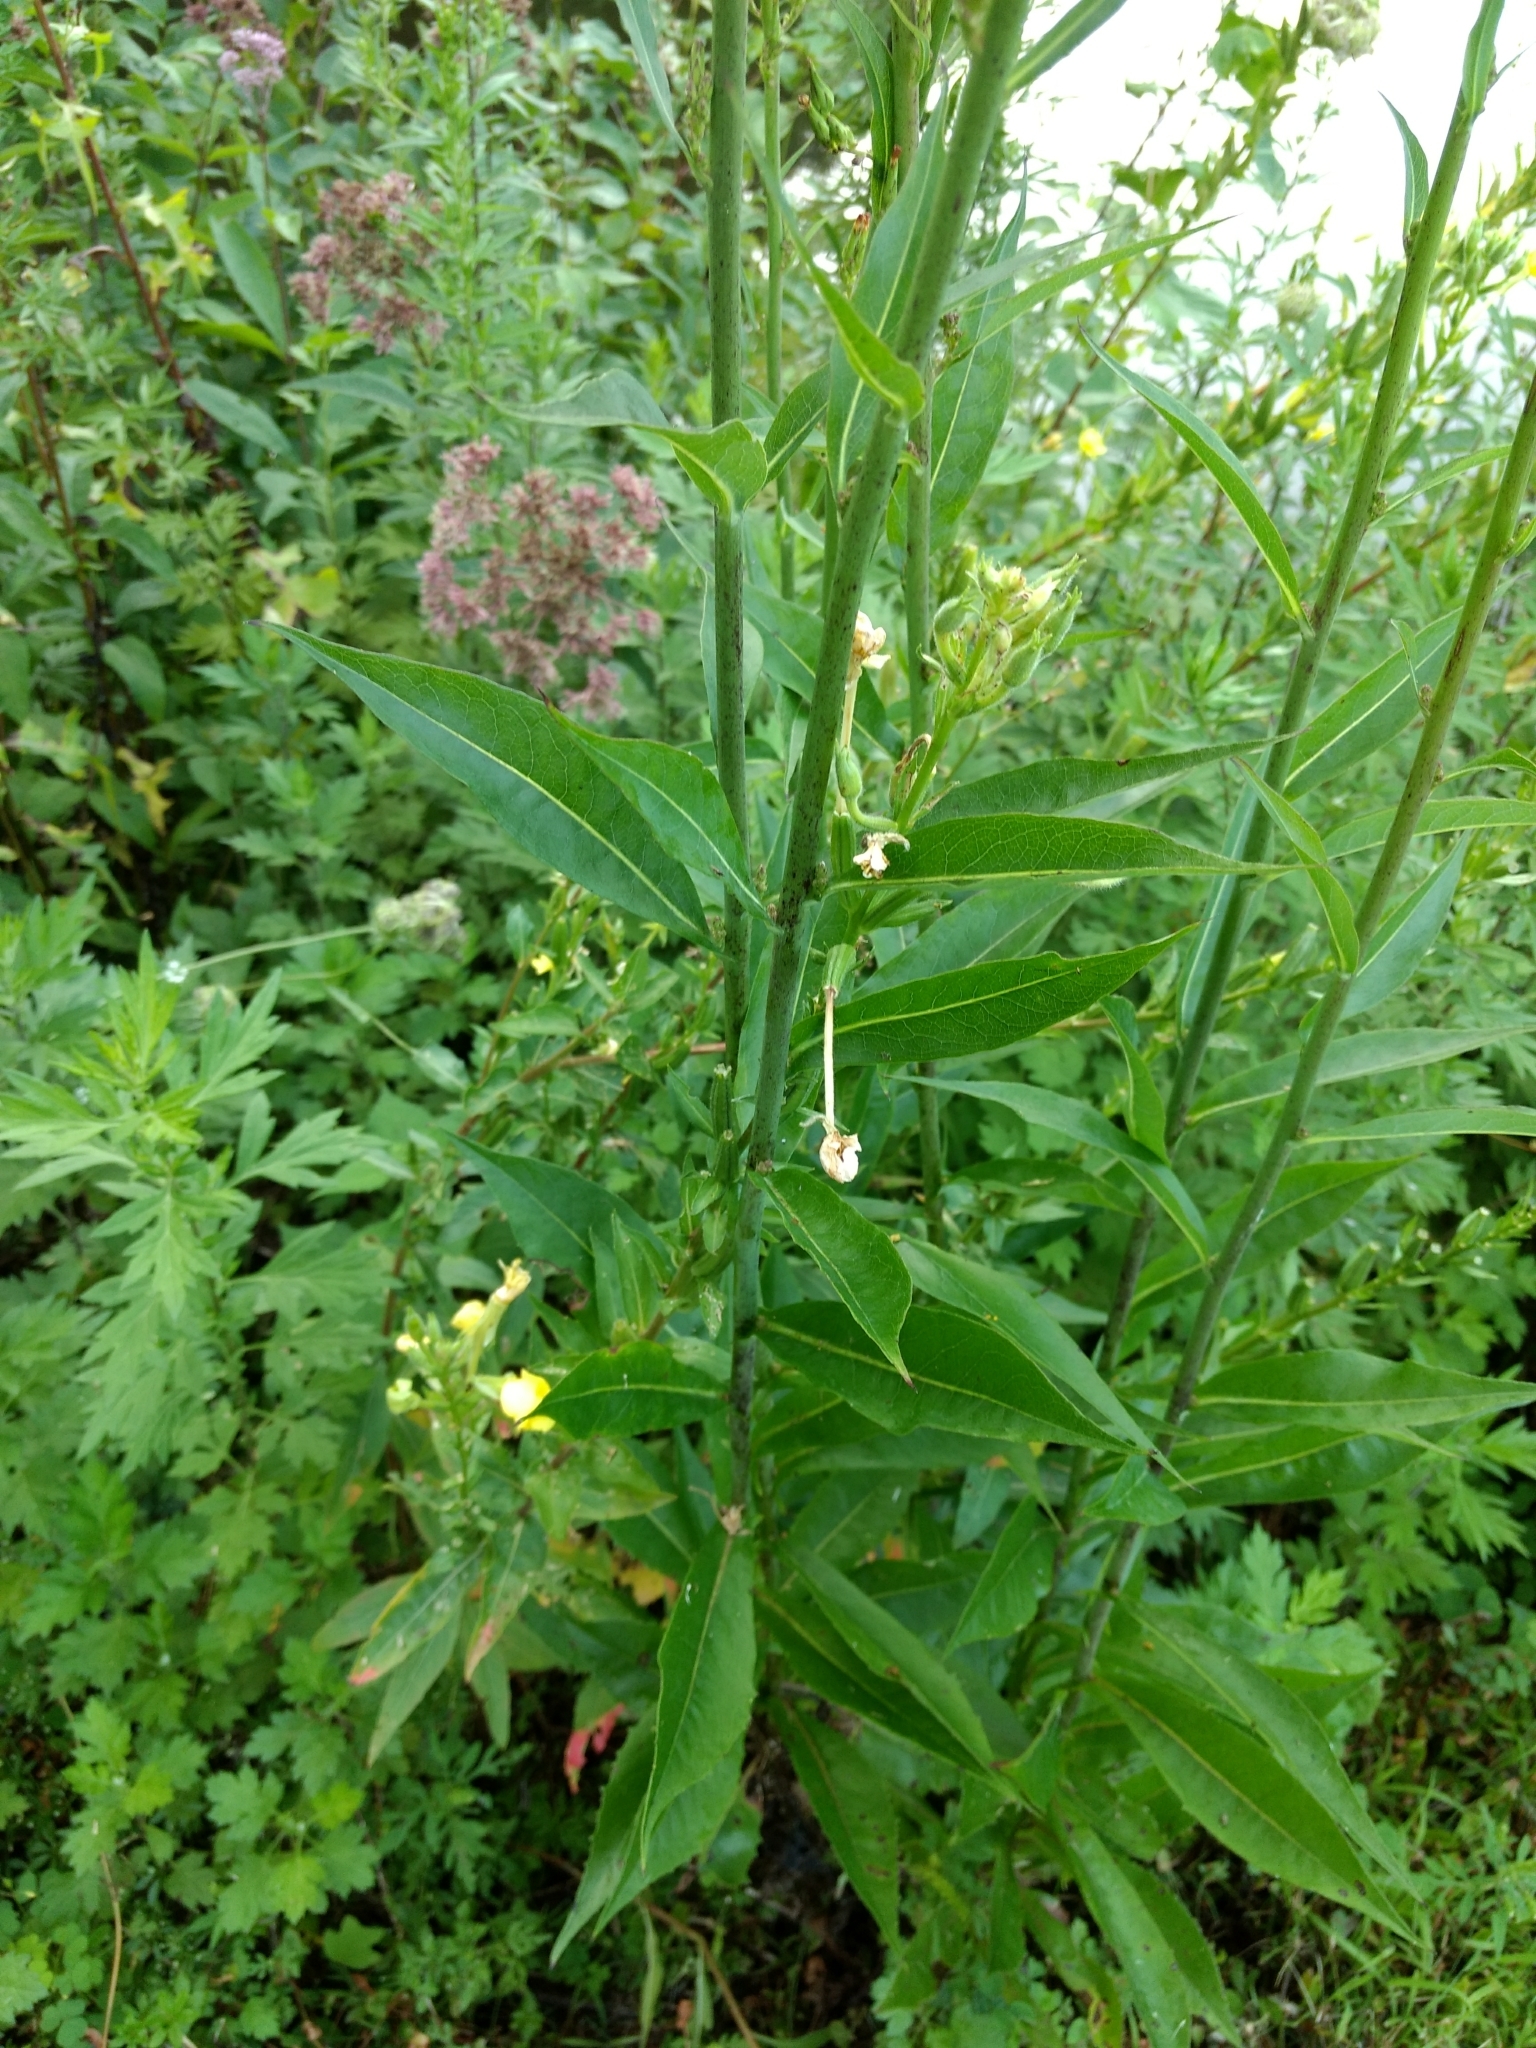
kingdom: Plantae
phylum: Tracheophyta
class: Magnoliopsida
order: Asterales
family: Asteraceae
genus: Lactuca
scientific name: Lactuca canadensis
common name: Canada lettuce
